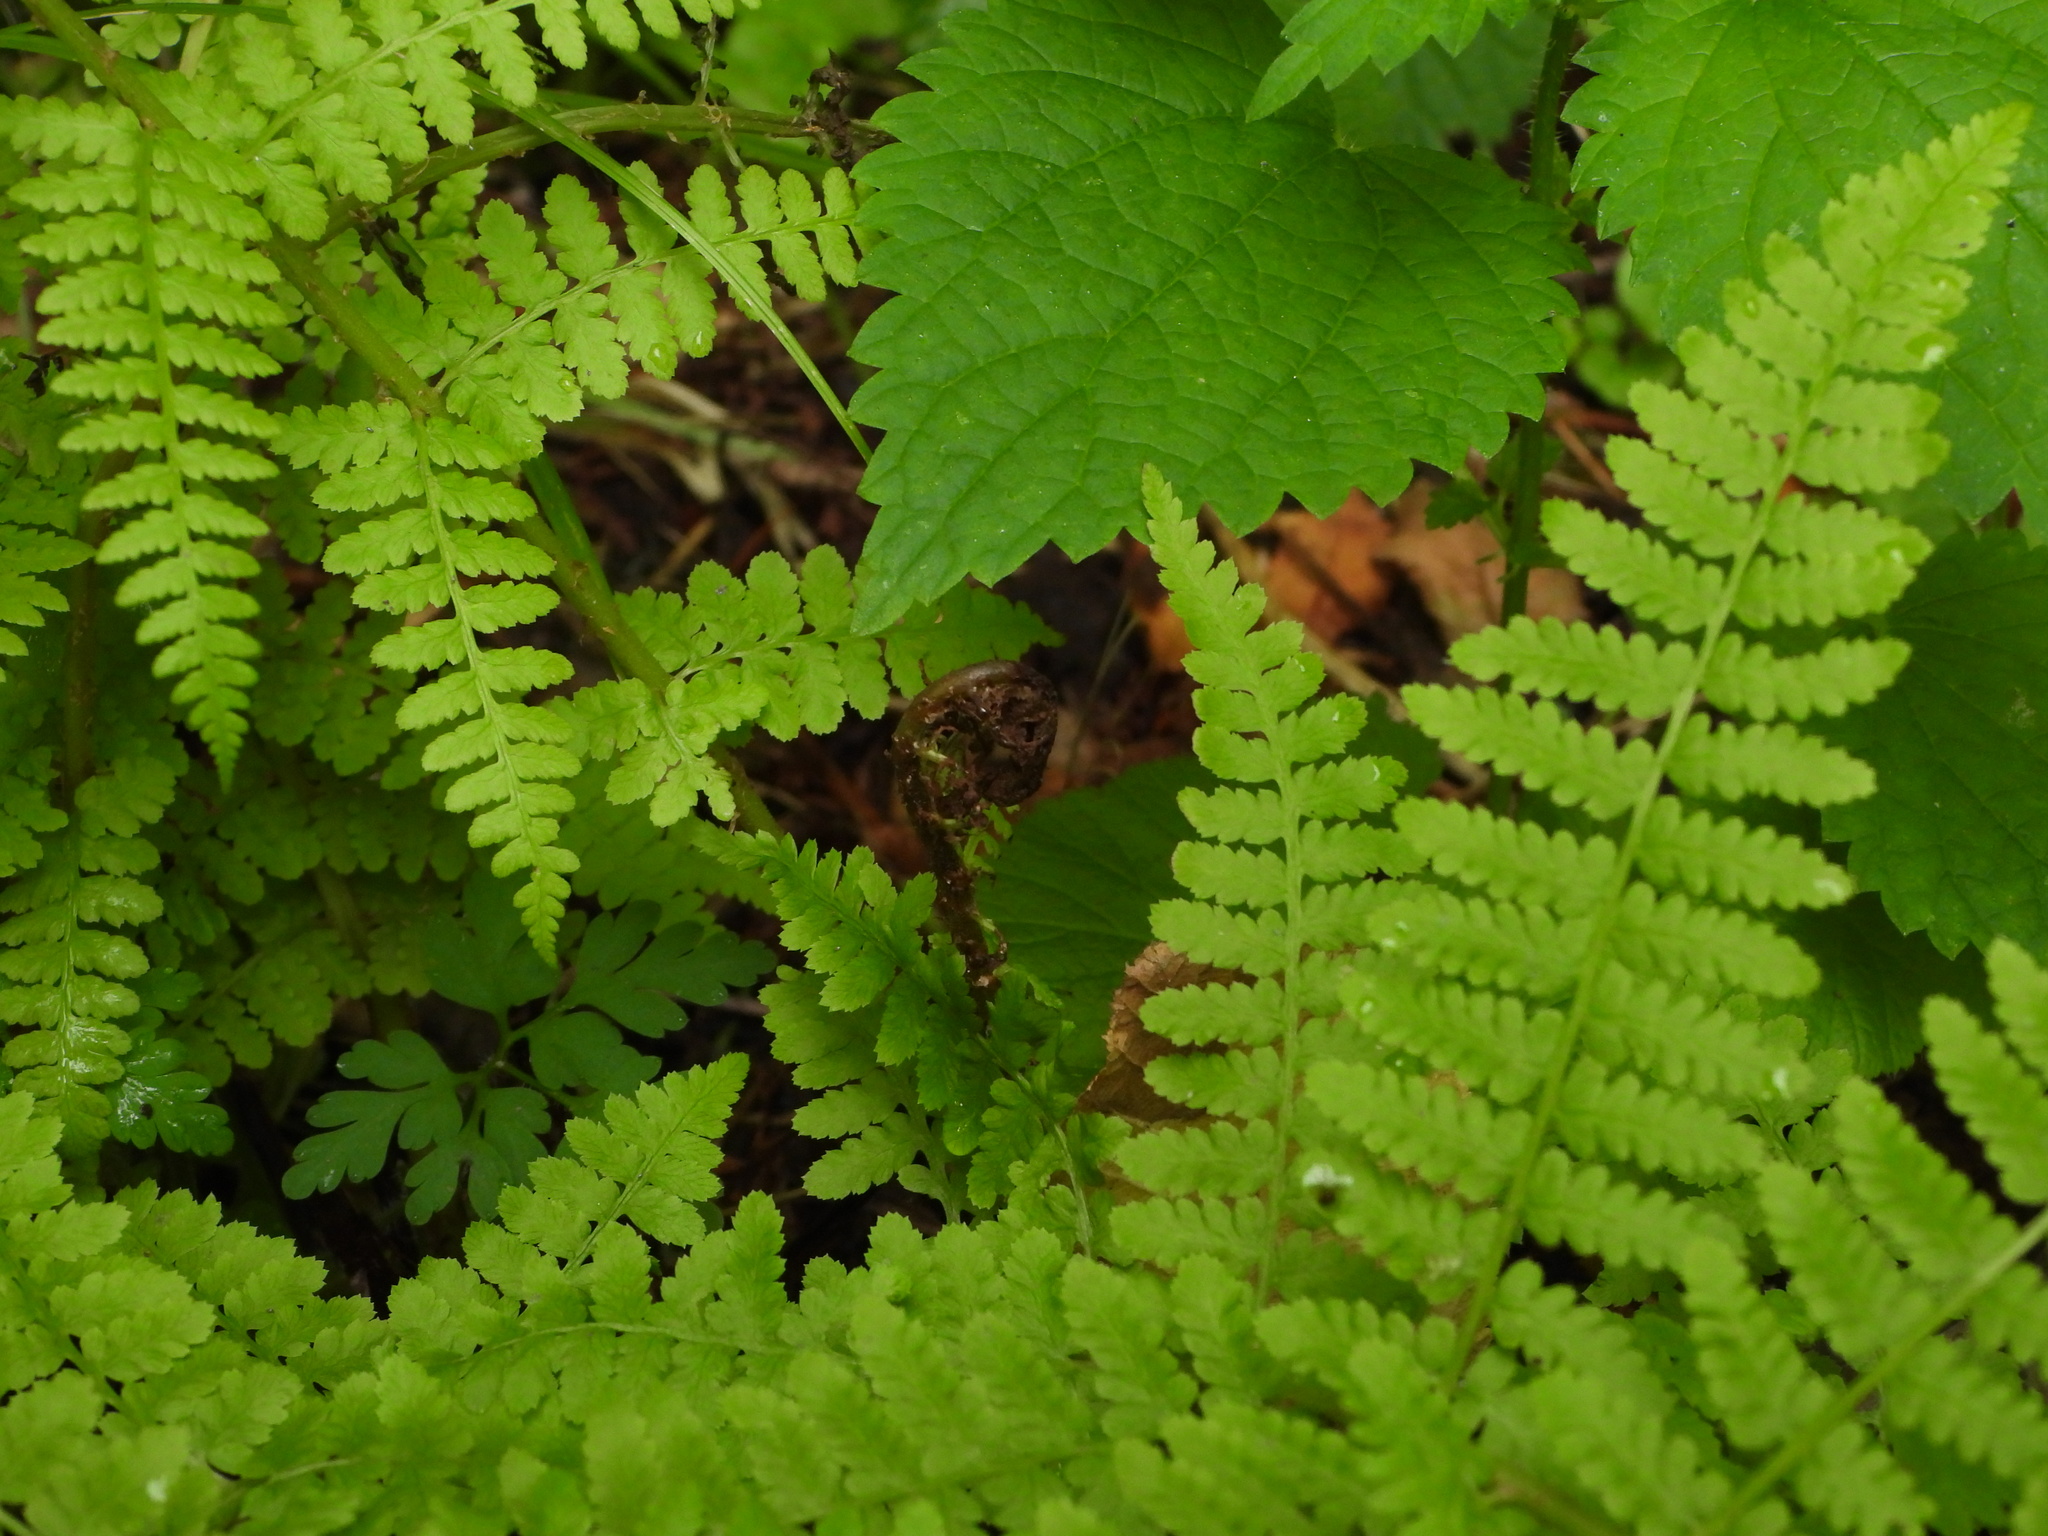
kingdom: Plantae
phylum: Tracheophyta
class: Polypodiopsida
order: Polypodiales
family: Athyriaceae
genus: Athyrium
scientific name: Athyrium filix-femina
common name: Lady fern
